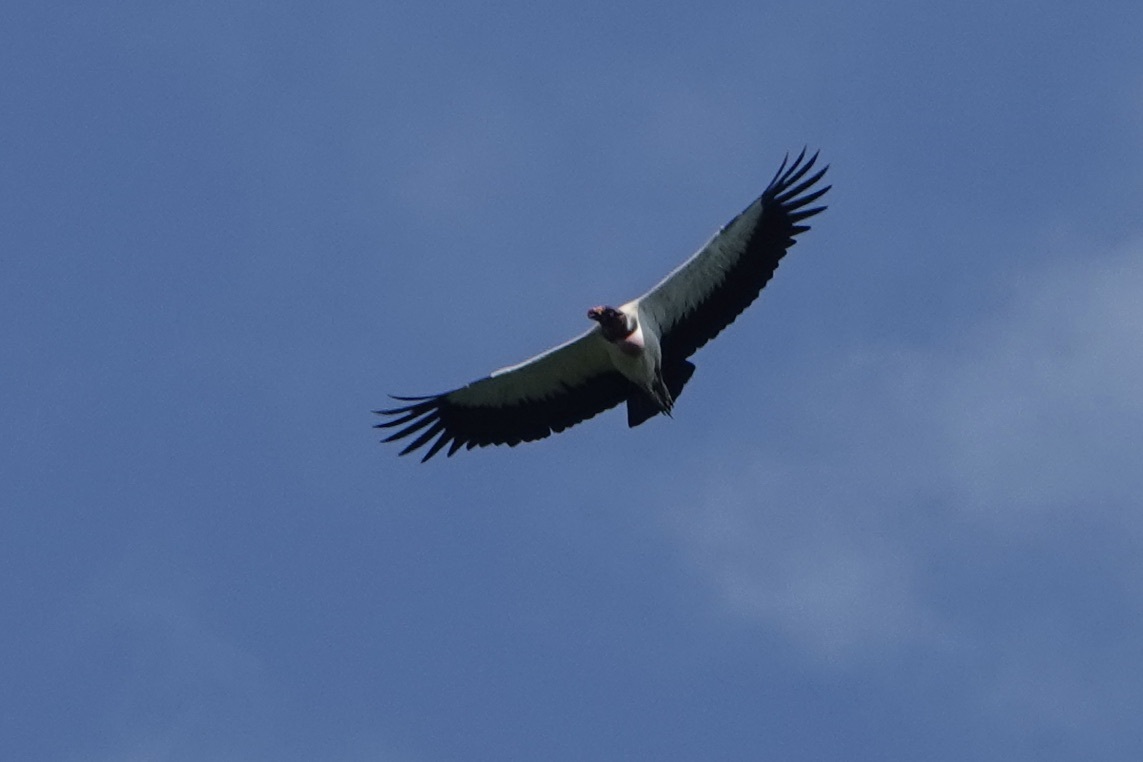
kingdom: Animalia
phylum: Chordata
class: Aves
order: Accipitriformes
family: Cathartidae
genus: Sarcoramphus
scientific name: Sarcoramphus papa
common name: King vulture
